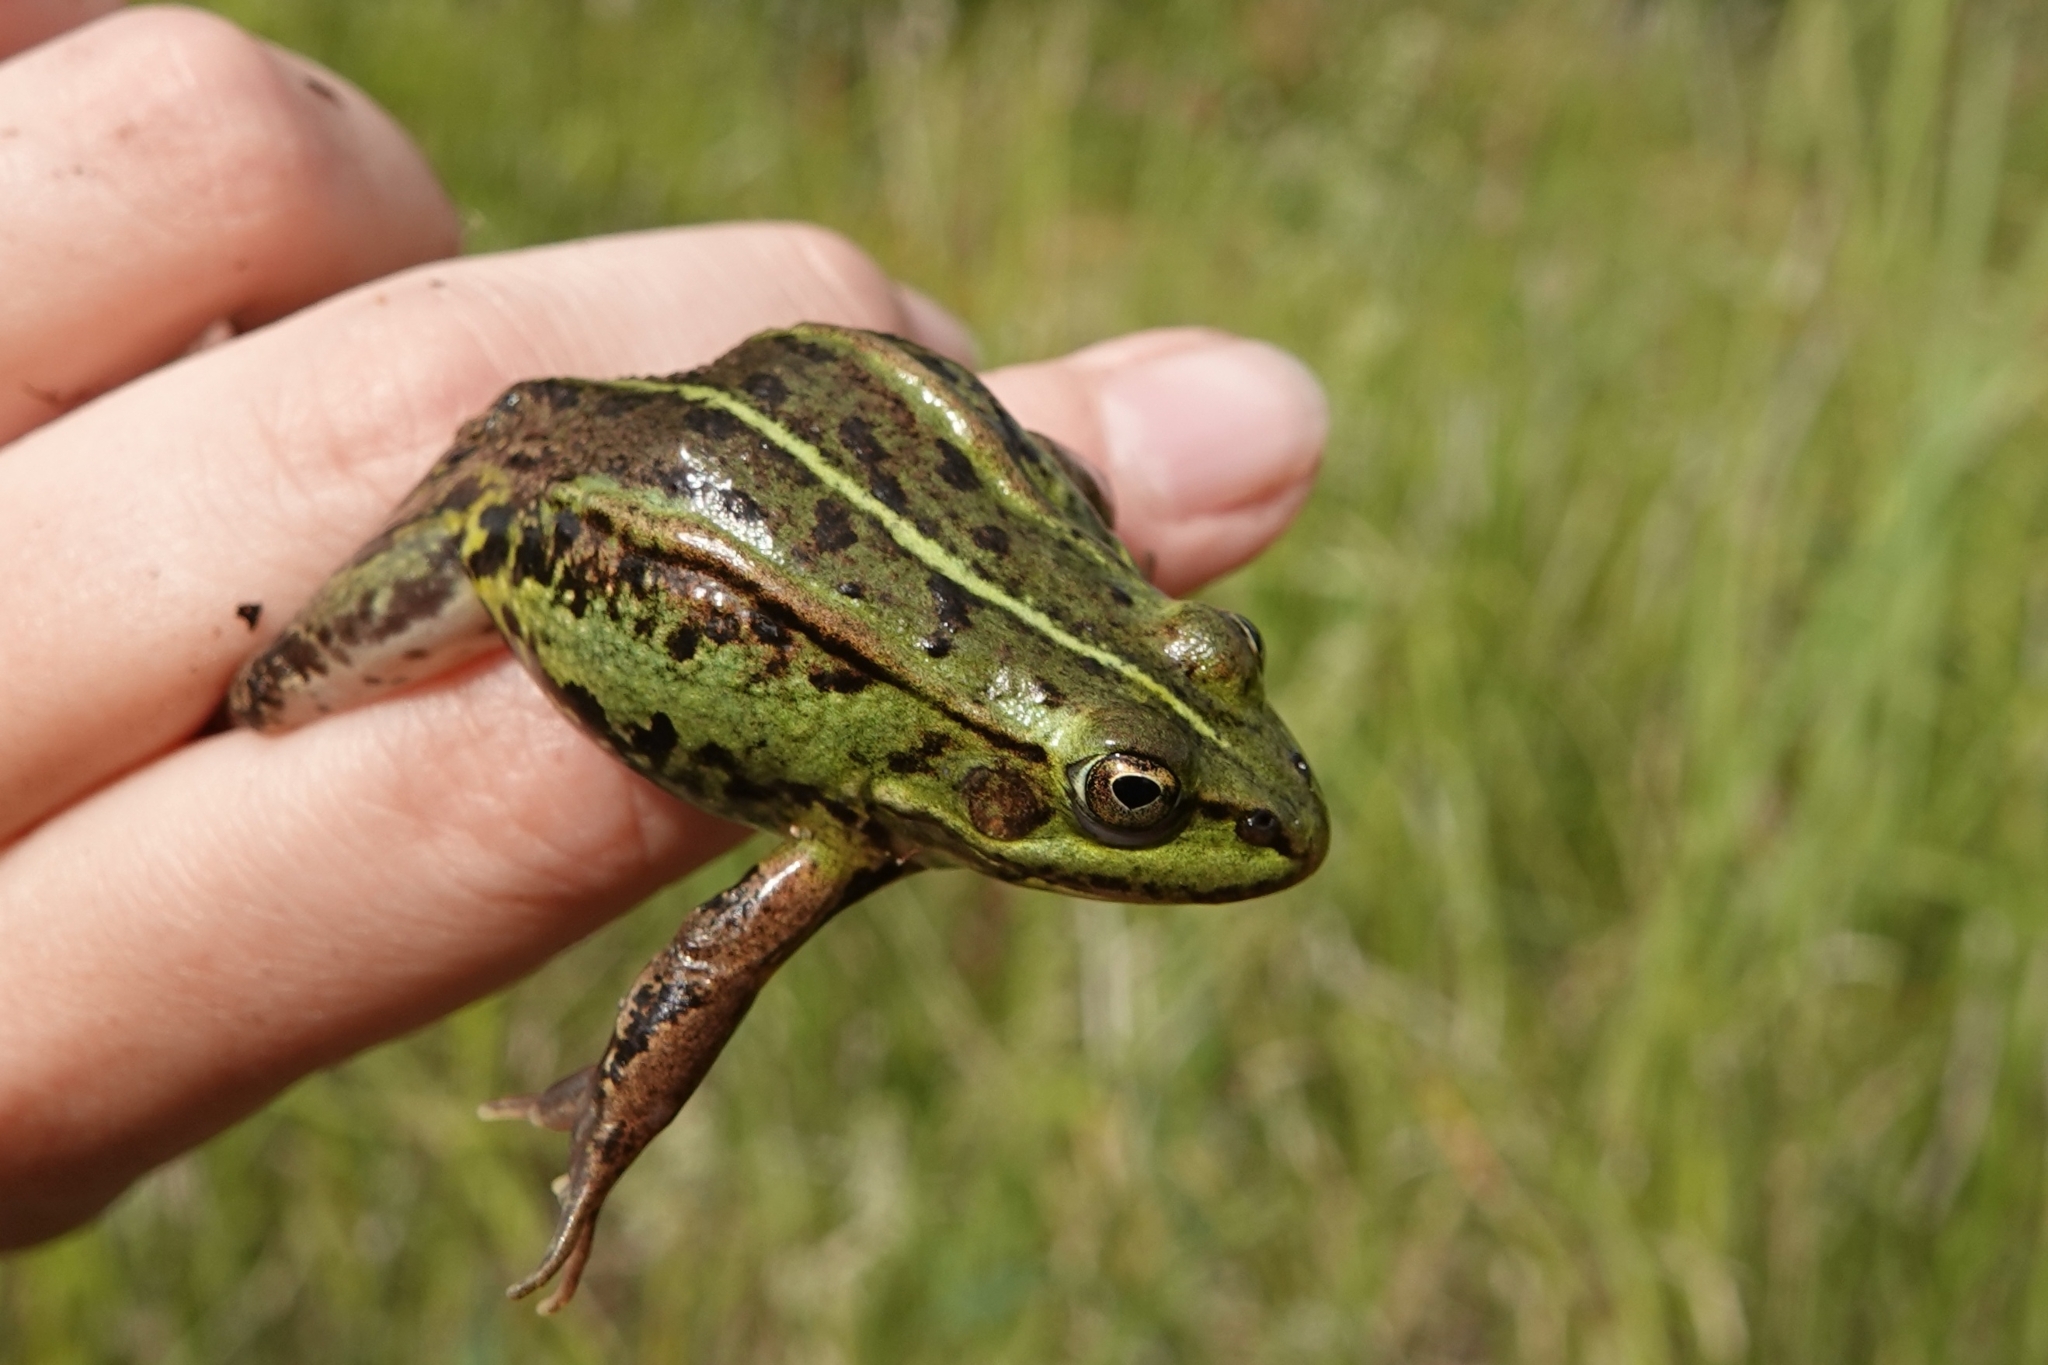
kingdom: Animalia
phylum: Chordata
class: Amphibia
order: Anura
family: Ranidae
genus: Pelophylax
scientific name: Pelophylax lessonae
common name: Pool frog
